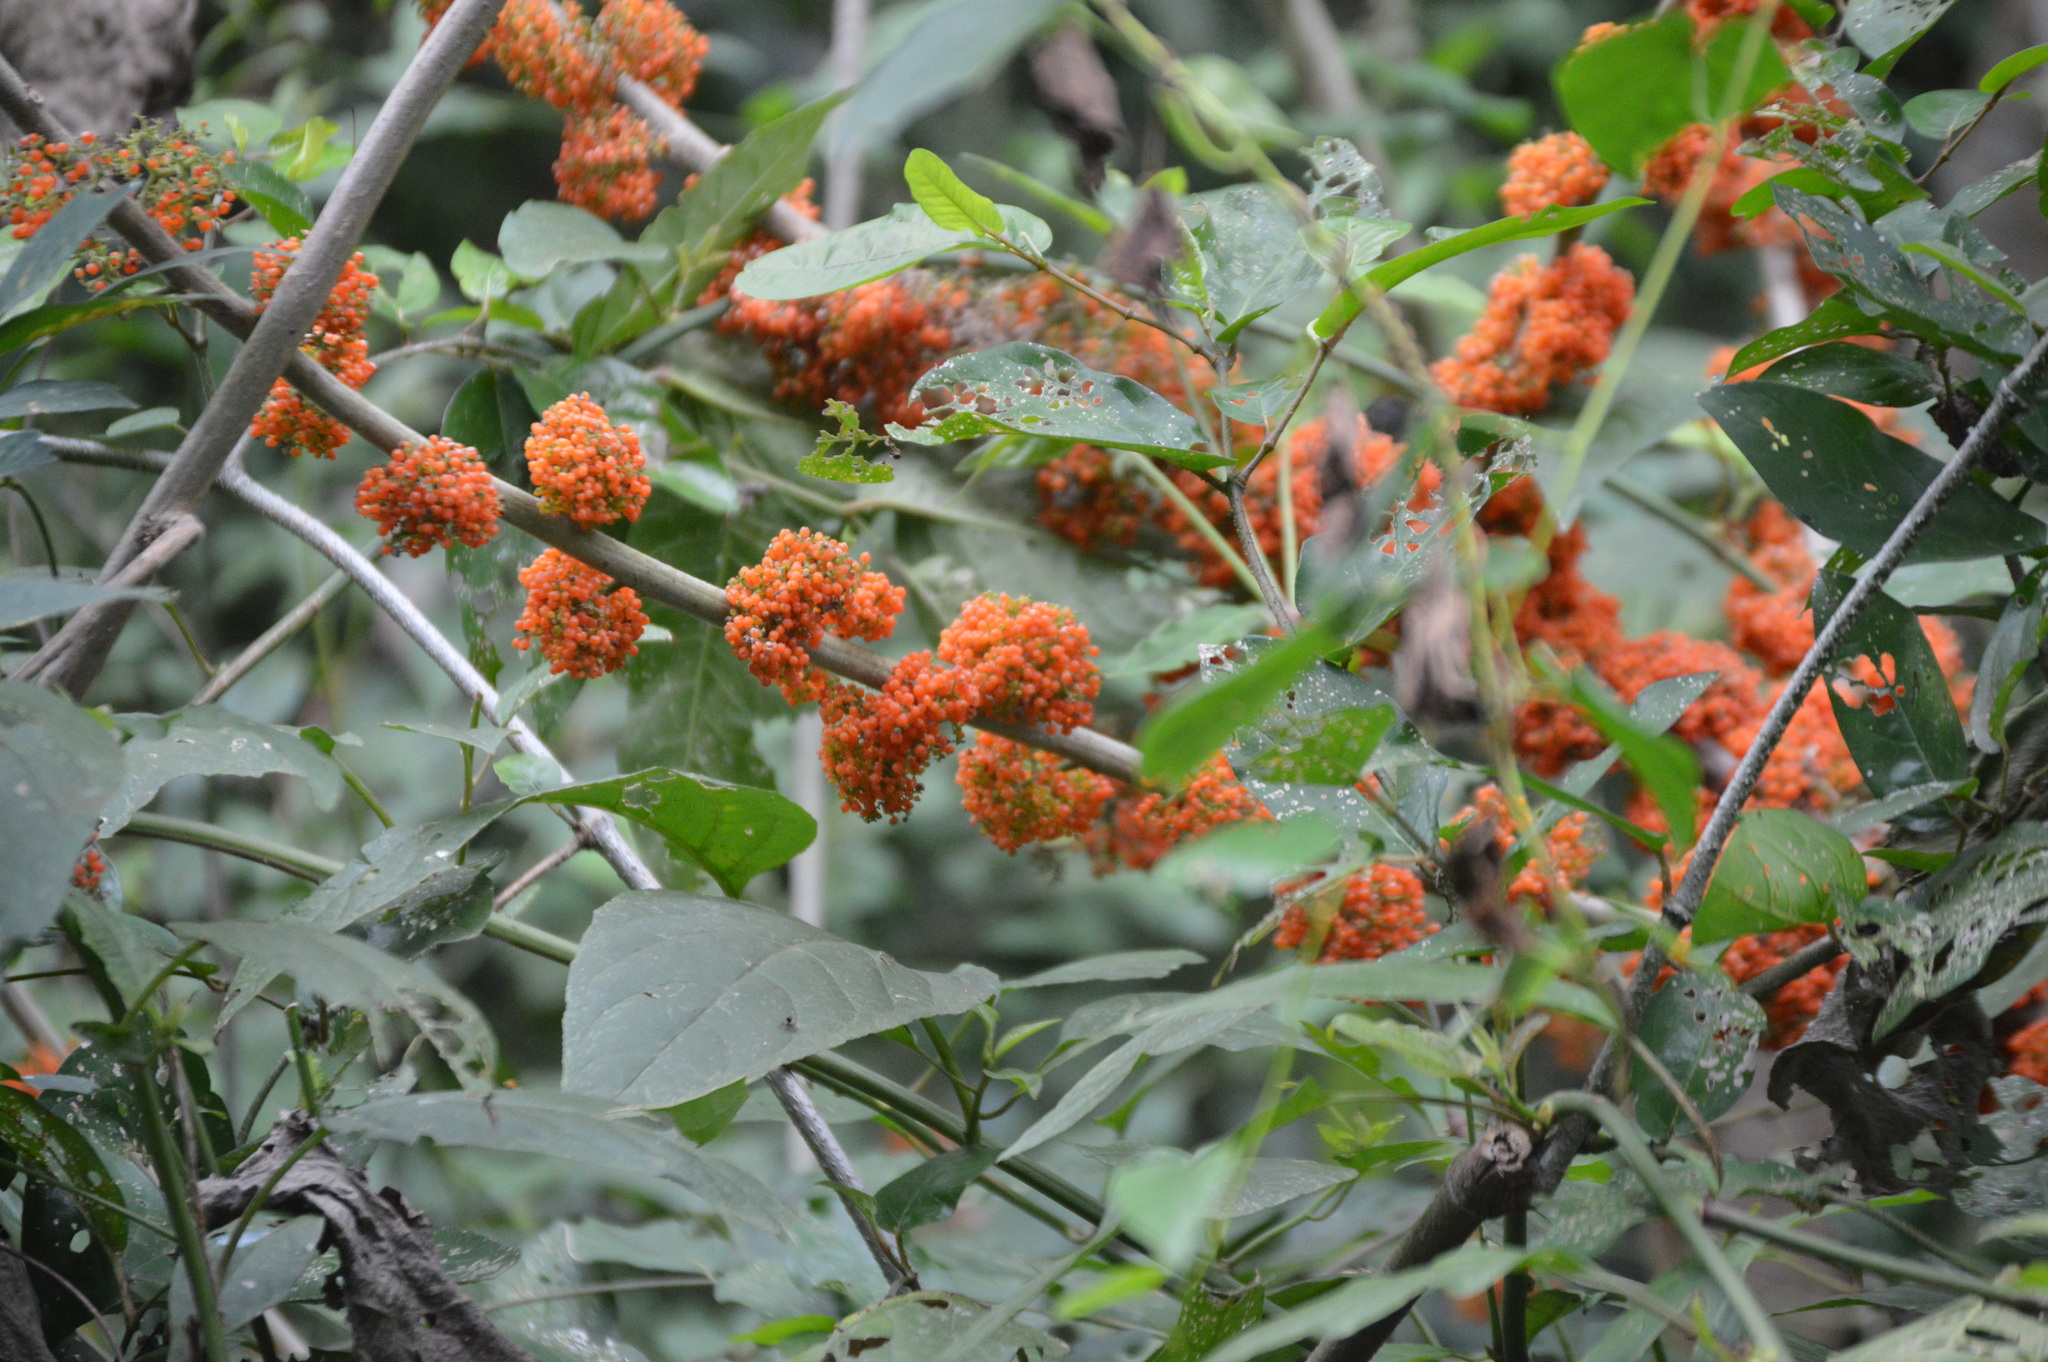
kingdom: Plantae
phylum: Tracheophyta
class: Magnoliopsida
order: Rosales
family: Urticaceae
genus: Urera
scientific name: Urera caracasana
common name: Flameberry
